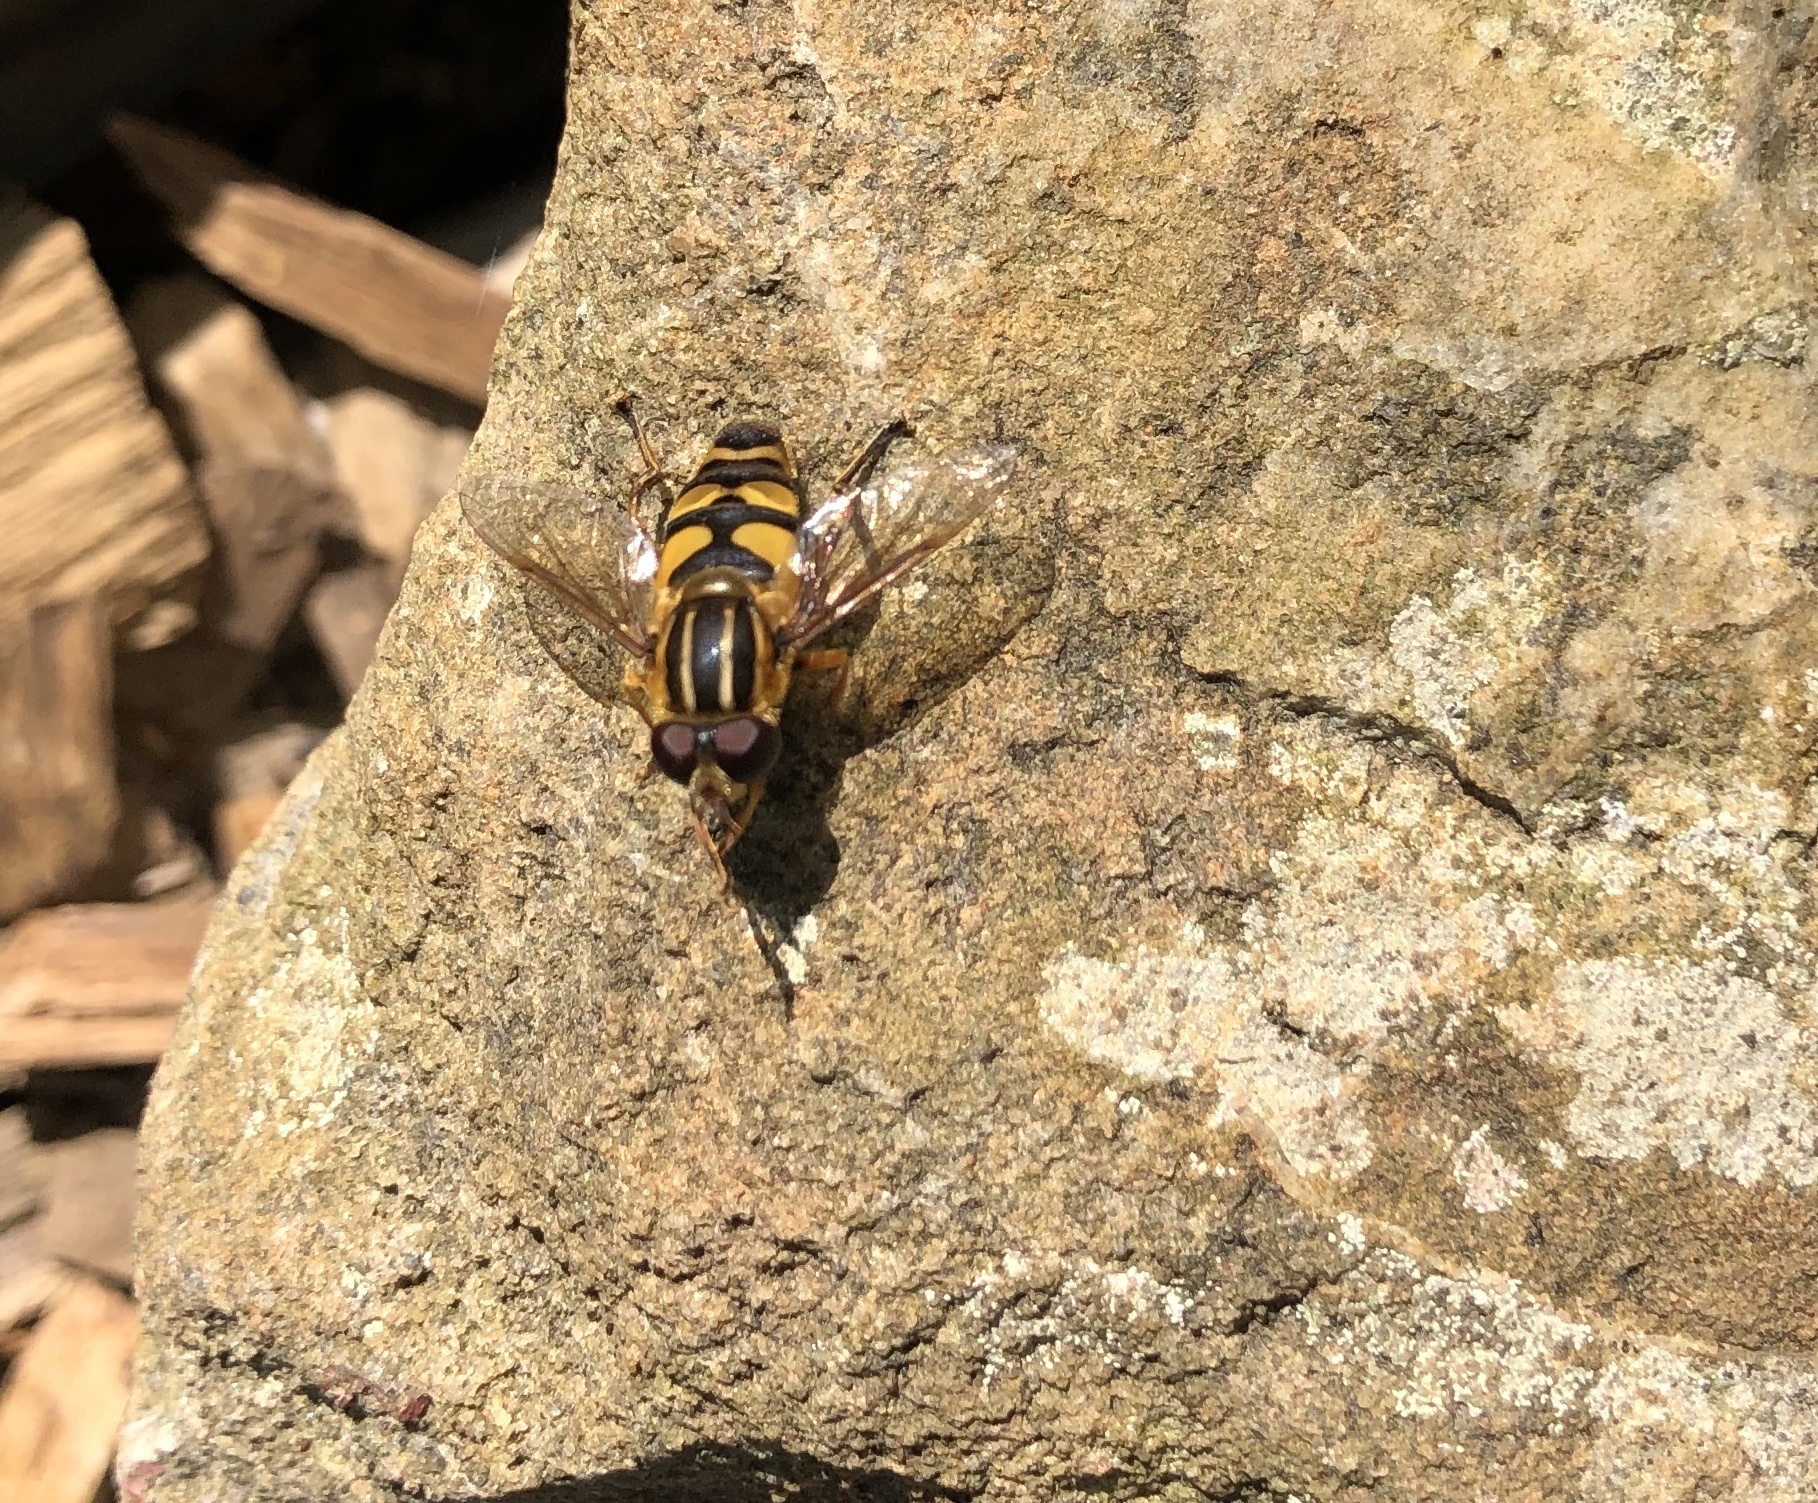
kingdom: Animalia
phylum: Arthropoda
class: Insecta
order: Diptera
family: Syrphidae
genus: Helophilus
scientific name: Helophilus fasciatus
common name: Narrow-headed marsh fly
